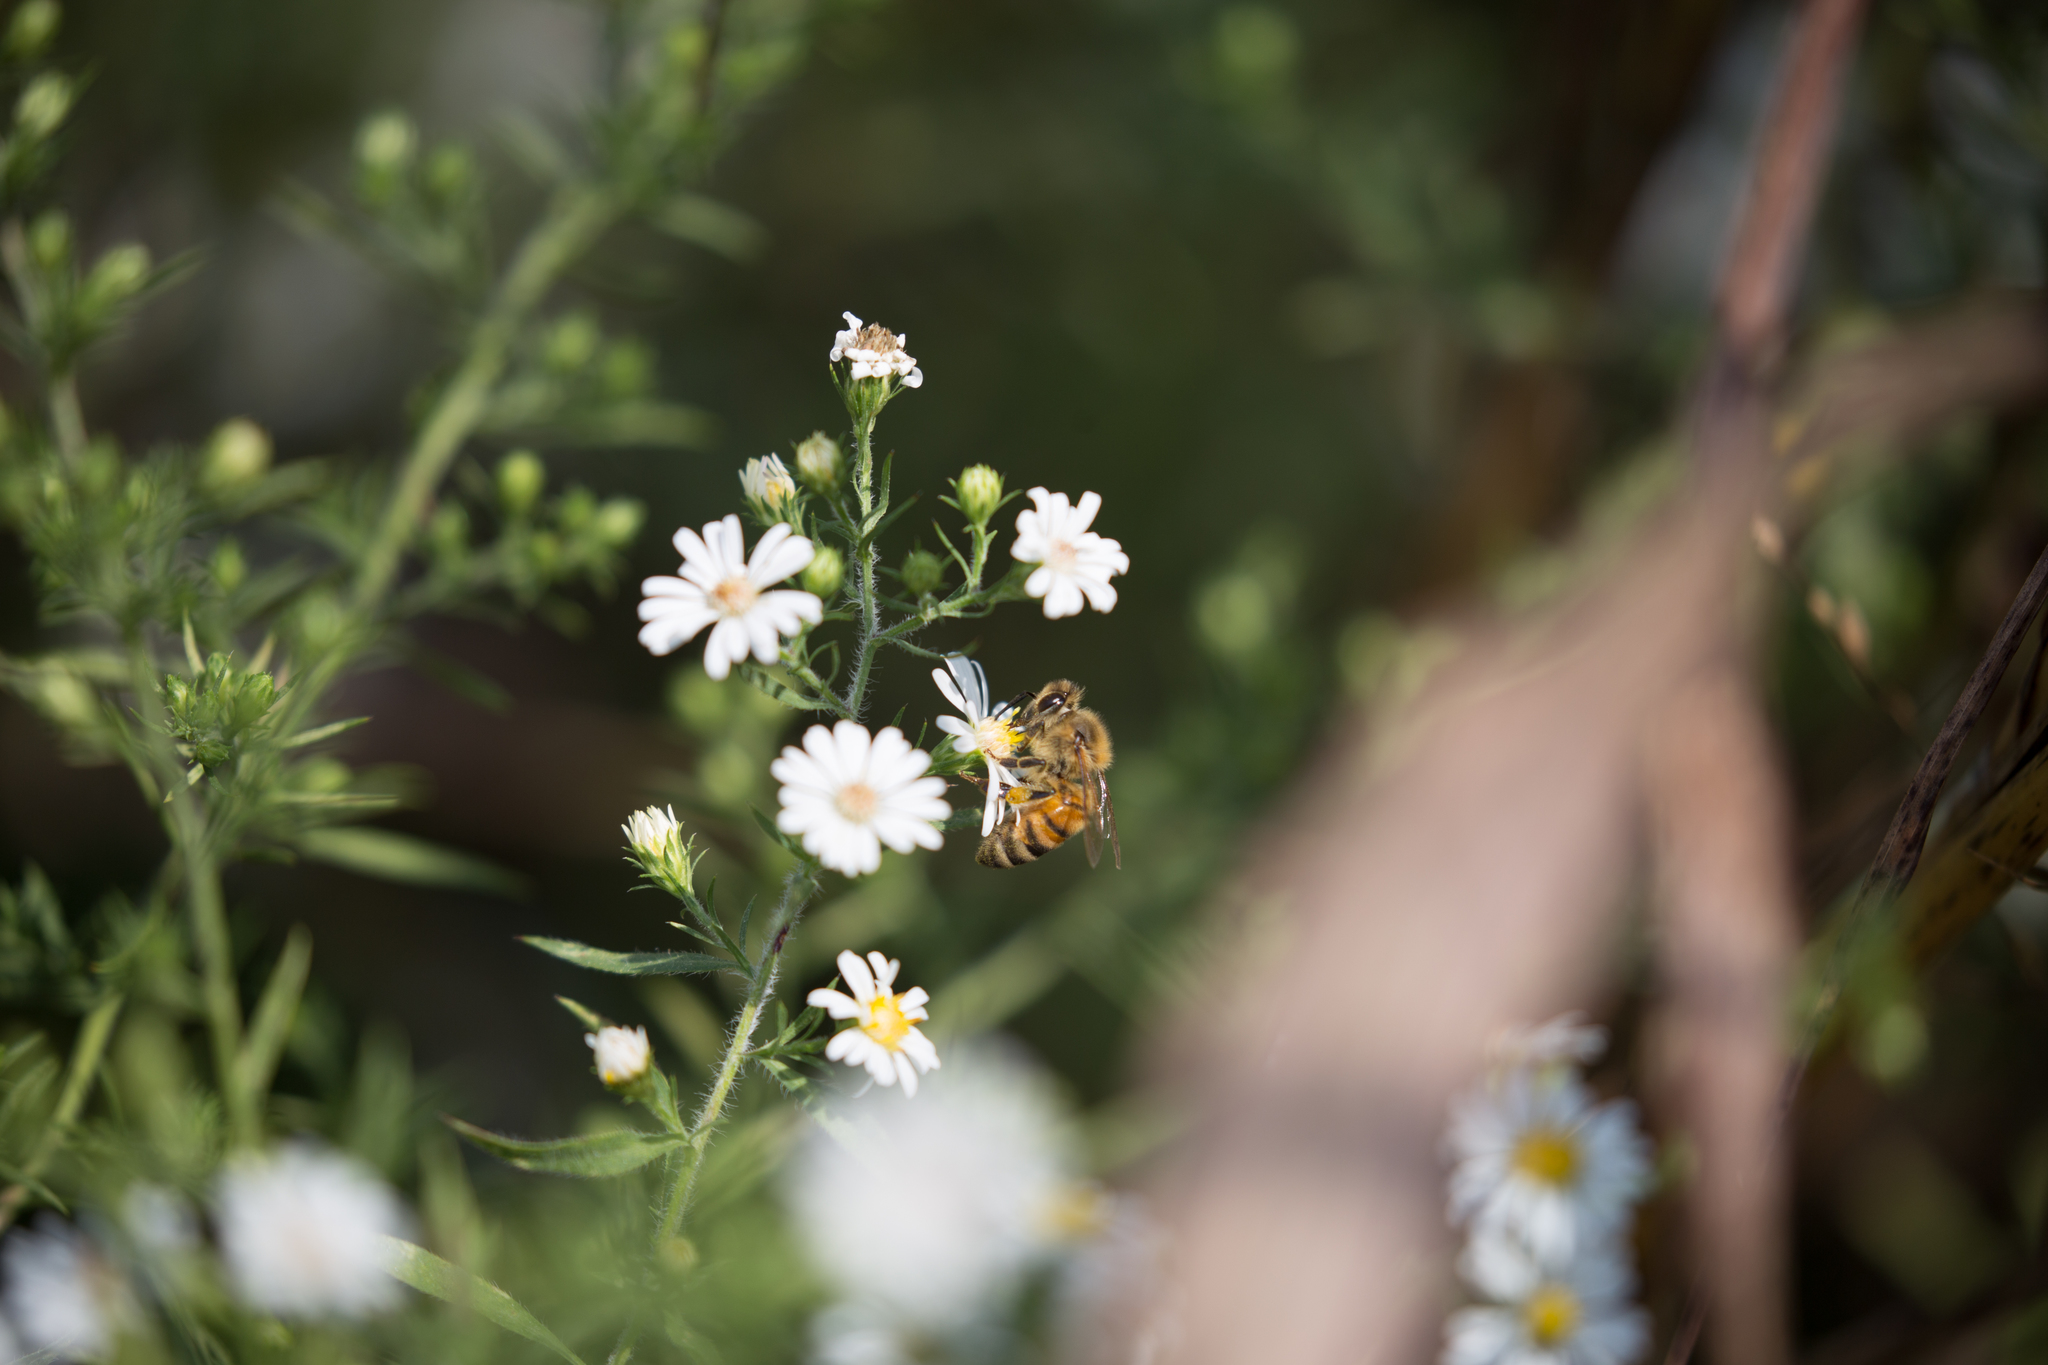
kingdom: Animalia
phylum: Arthropoda
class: Insecta
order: Hymenoptera
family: Apidae
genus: Apis
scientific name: Apis mellifera
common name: Honey bee
